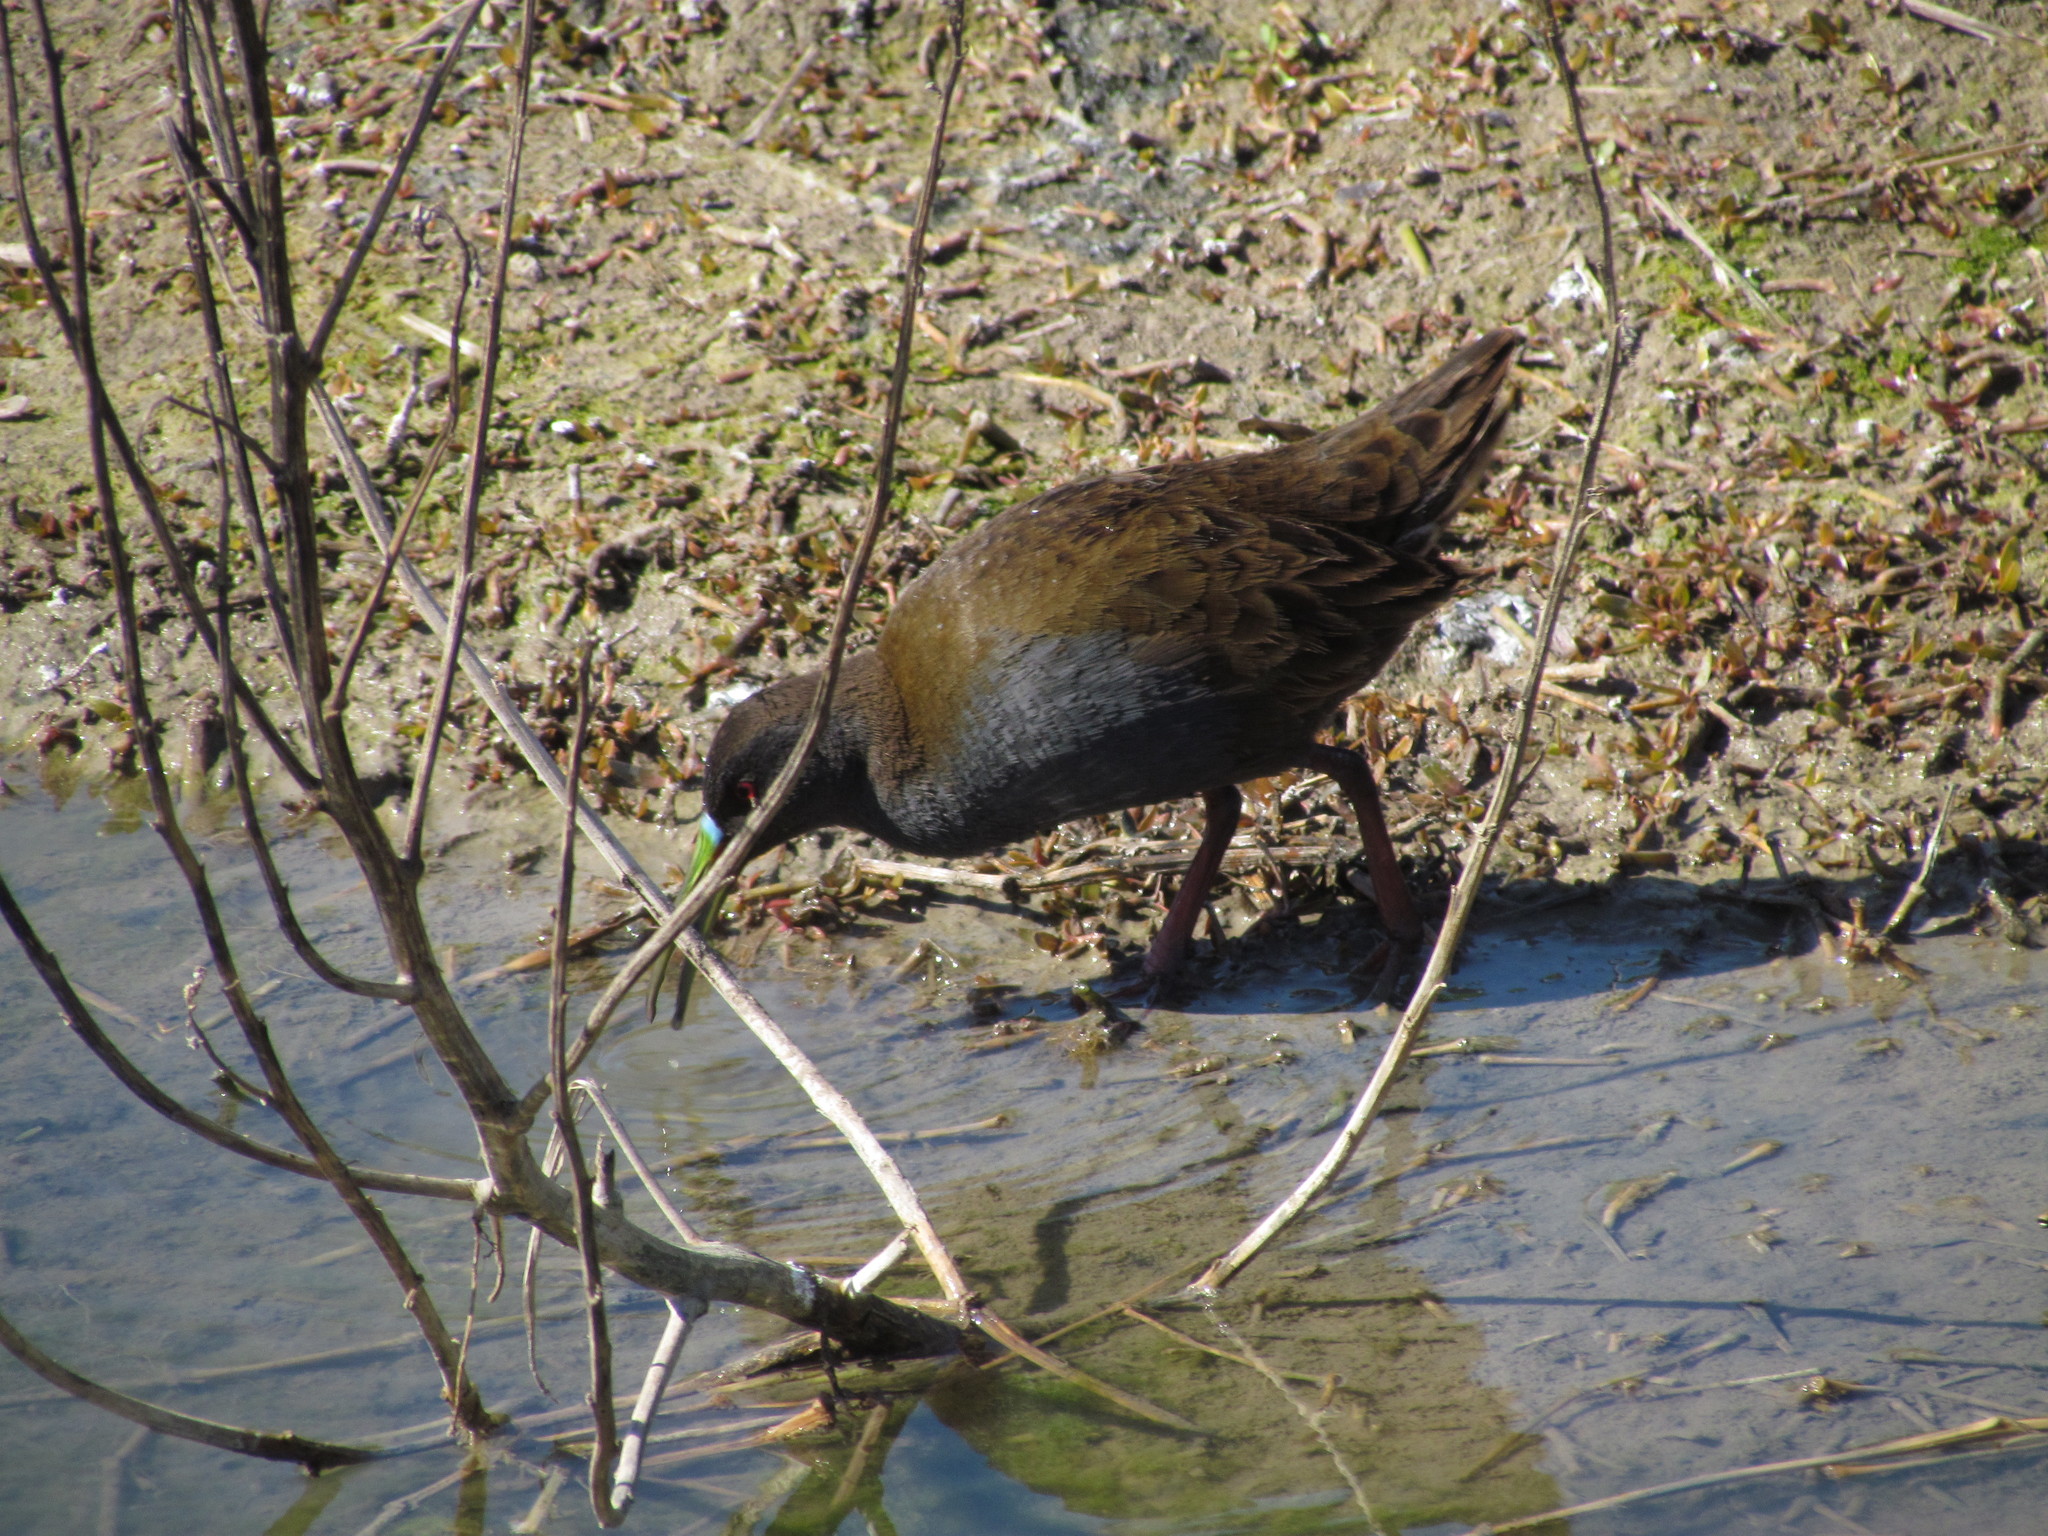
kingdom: Animalia
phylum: Chordata
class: Aves
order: Gruiformes
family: Rallidae
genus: Pardirallus
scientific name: Pardirallus sanguinolentus
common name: Plumbeous rail
